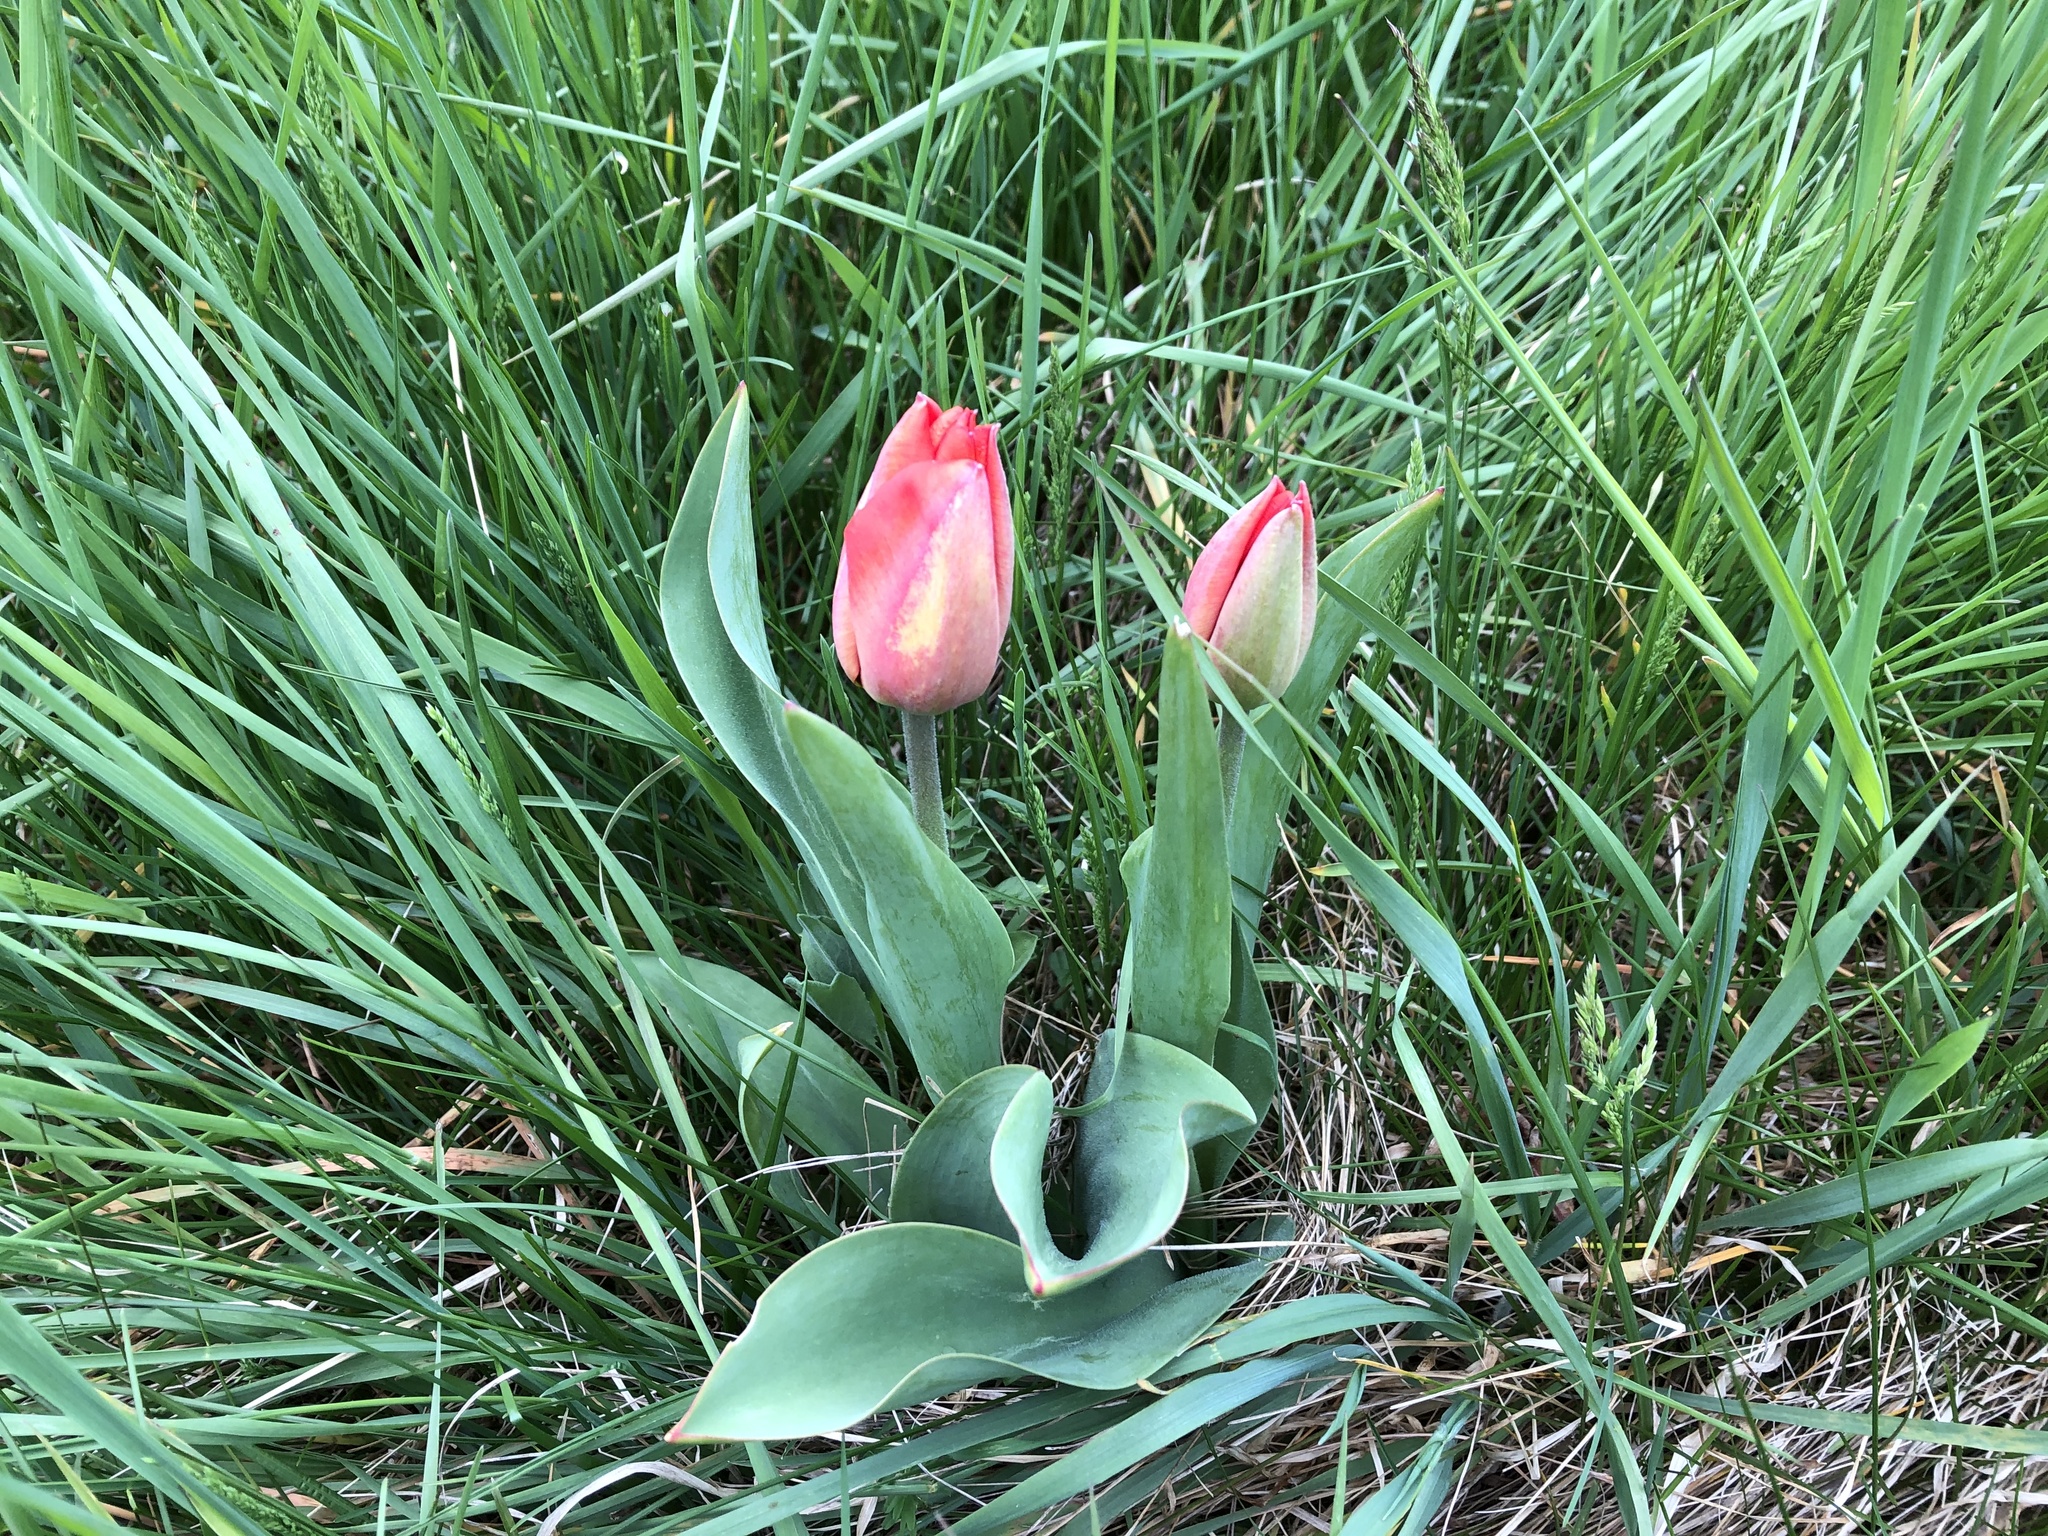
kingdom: Plantae
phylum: Tracheophyta
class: Liliopsida
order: Liliales
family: Liliaceae
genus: Tulipa
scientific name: Tulipa gesneriana
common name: Garden tulip
